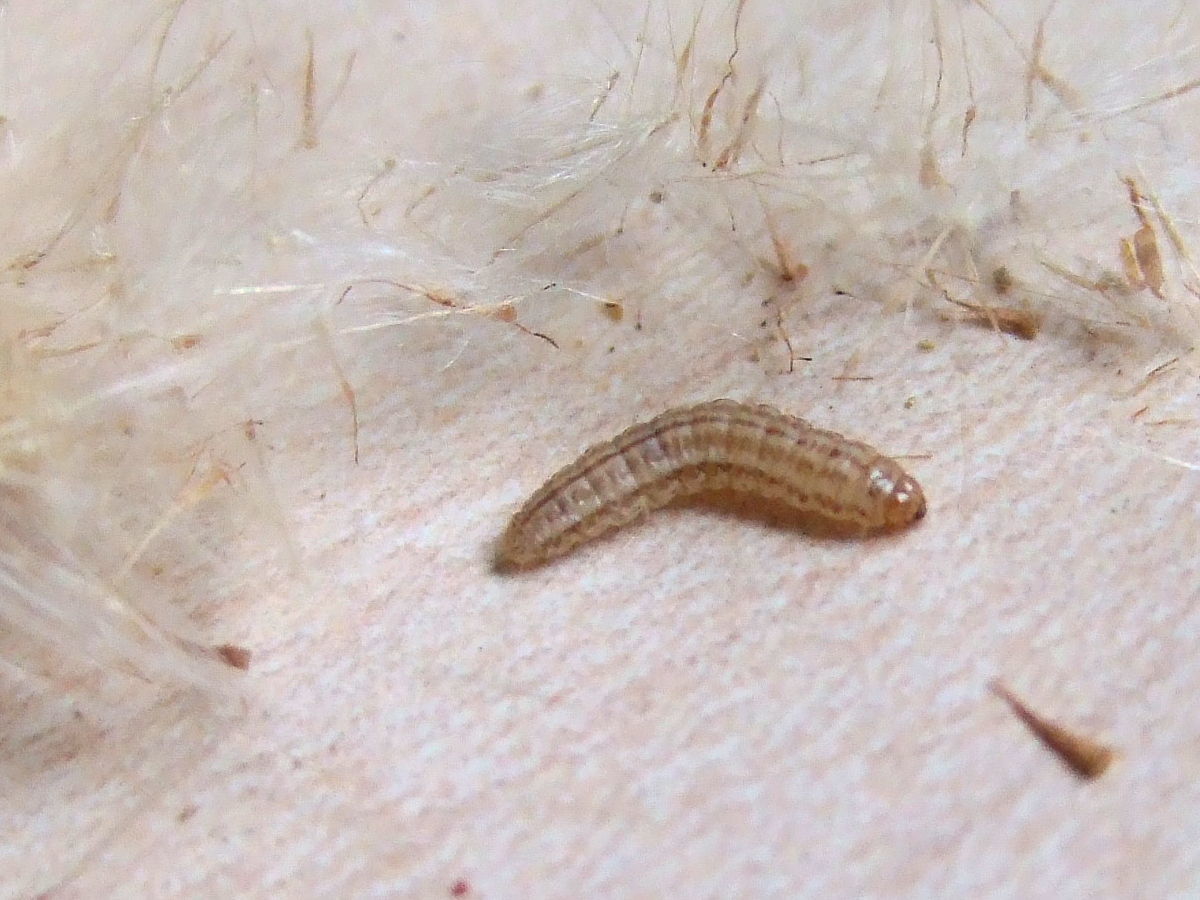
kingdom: Animalia
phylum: Arthropoda
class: Insecta
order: Lepidoptera
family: Cosmopterigidae
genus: Limnaecia
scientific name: Limnaecia phragmitella
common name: Bulrush cosmet
